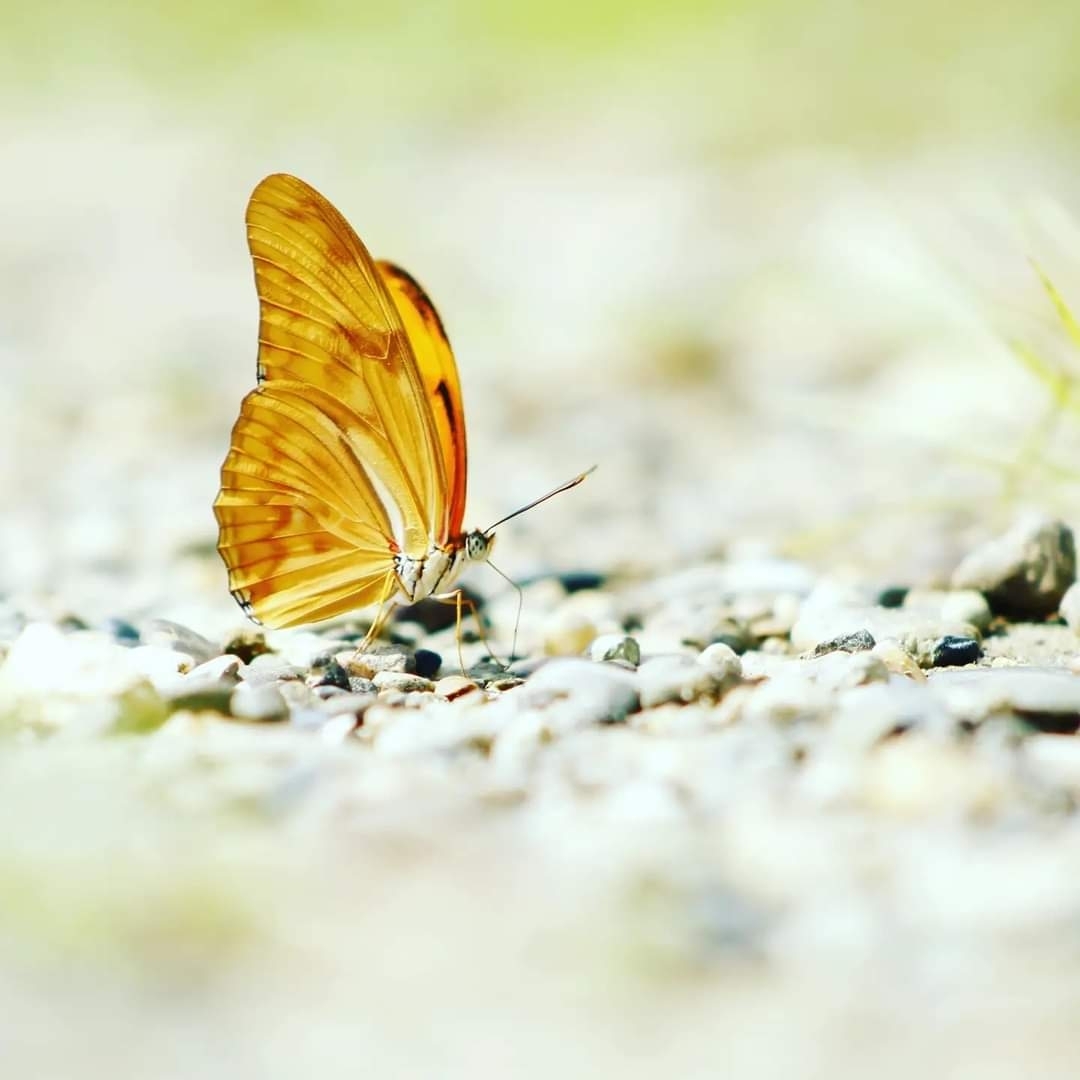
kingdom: Animalia
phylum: Arthropoda
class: Insecta
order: Lepidoptera
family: Nymphalidae
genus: Dryas
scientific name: Dryas iulia
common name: Flambeau
